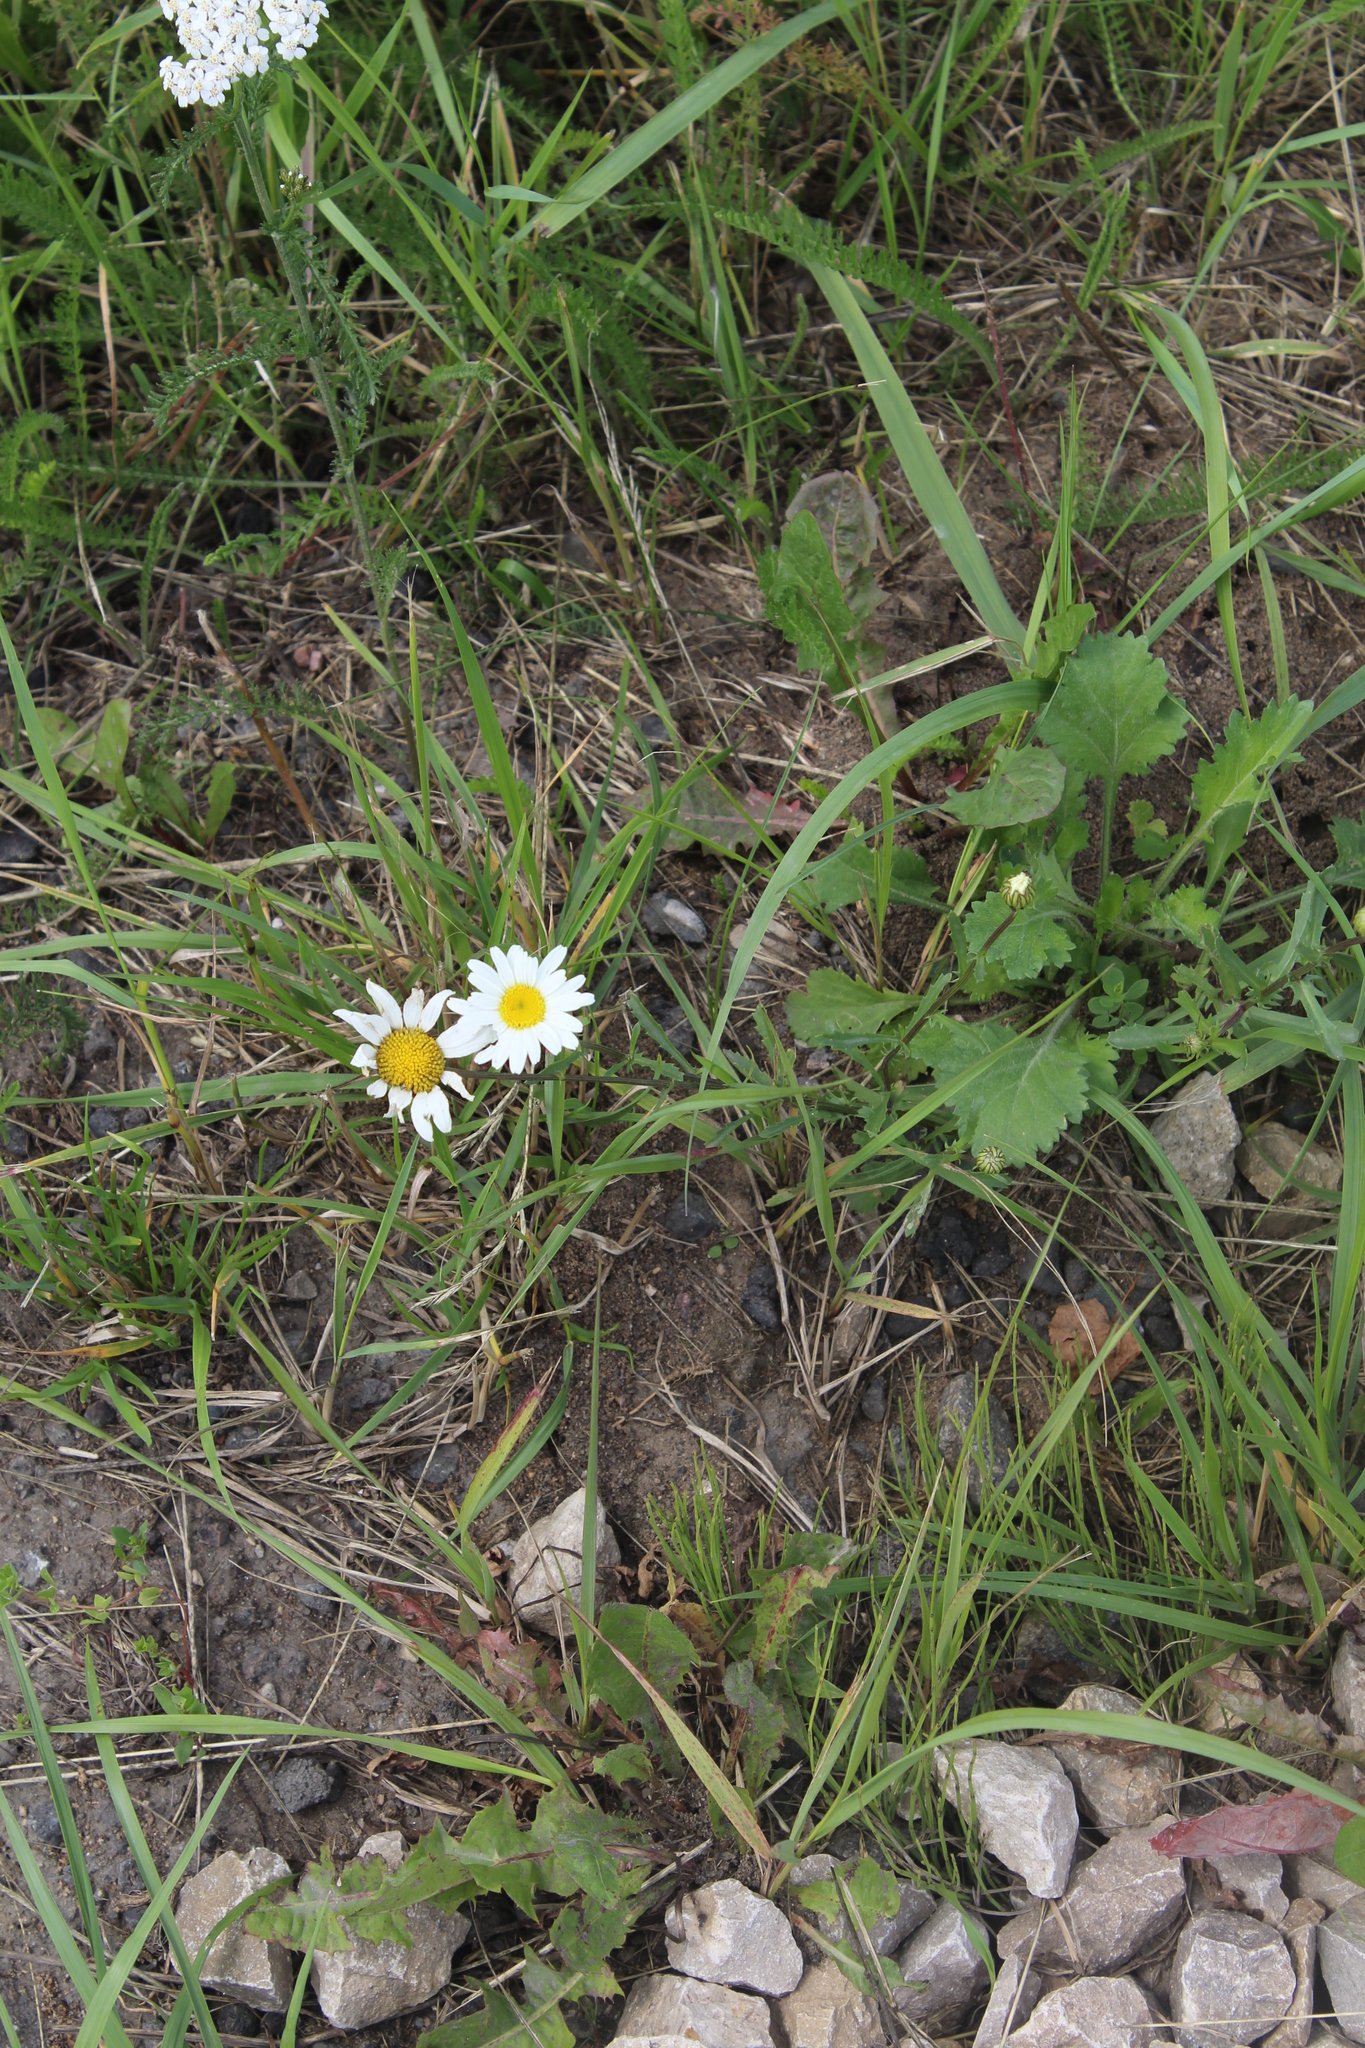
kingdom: Plantae
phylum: Tracheophyta
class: Magnoliopsida
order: Asterales
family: Asteraceae
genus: Leucanthemum
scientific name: Leucanthemum vulgare
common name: Oxeye daisy
